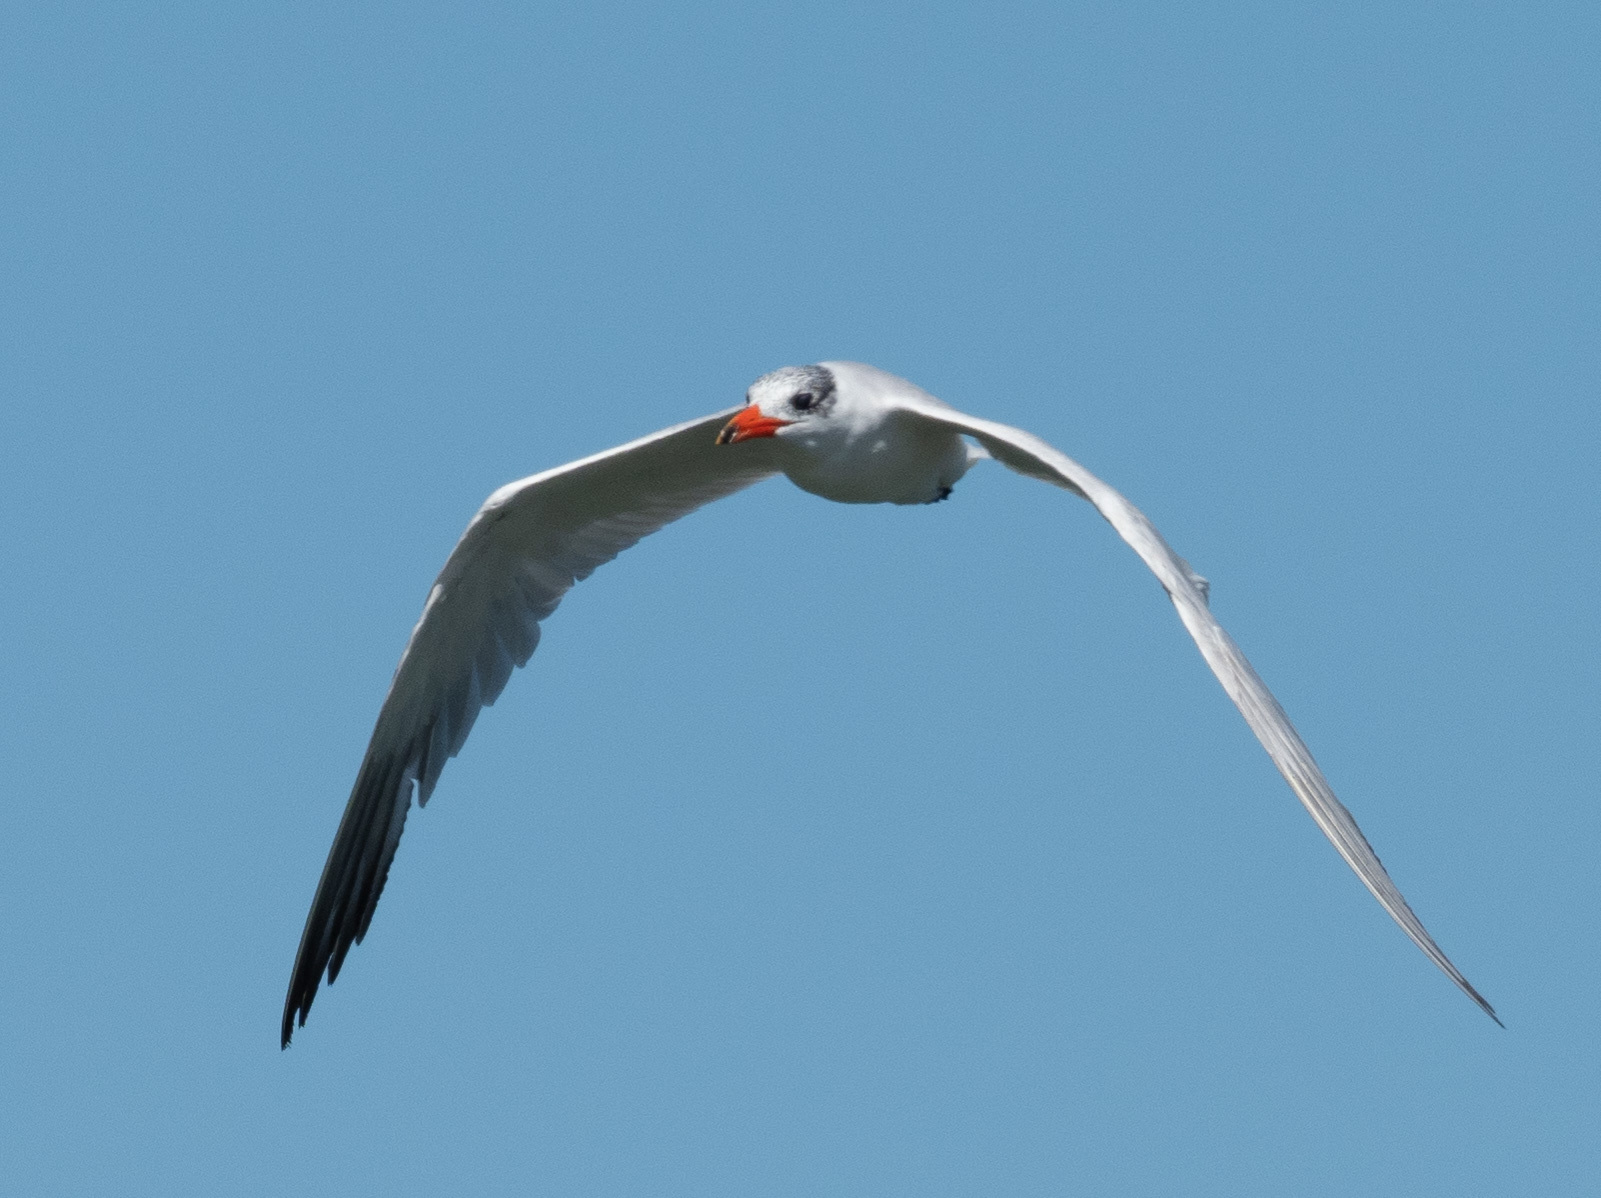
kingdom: Animalia
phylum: Chordata
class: Aves
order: Charadriiformes
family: Laridae
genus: Hydroprogne
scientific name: Hydroprogne caspia
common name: Caspian tern
